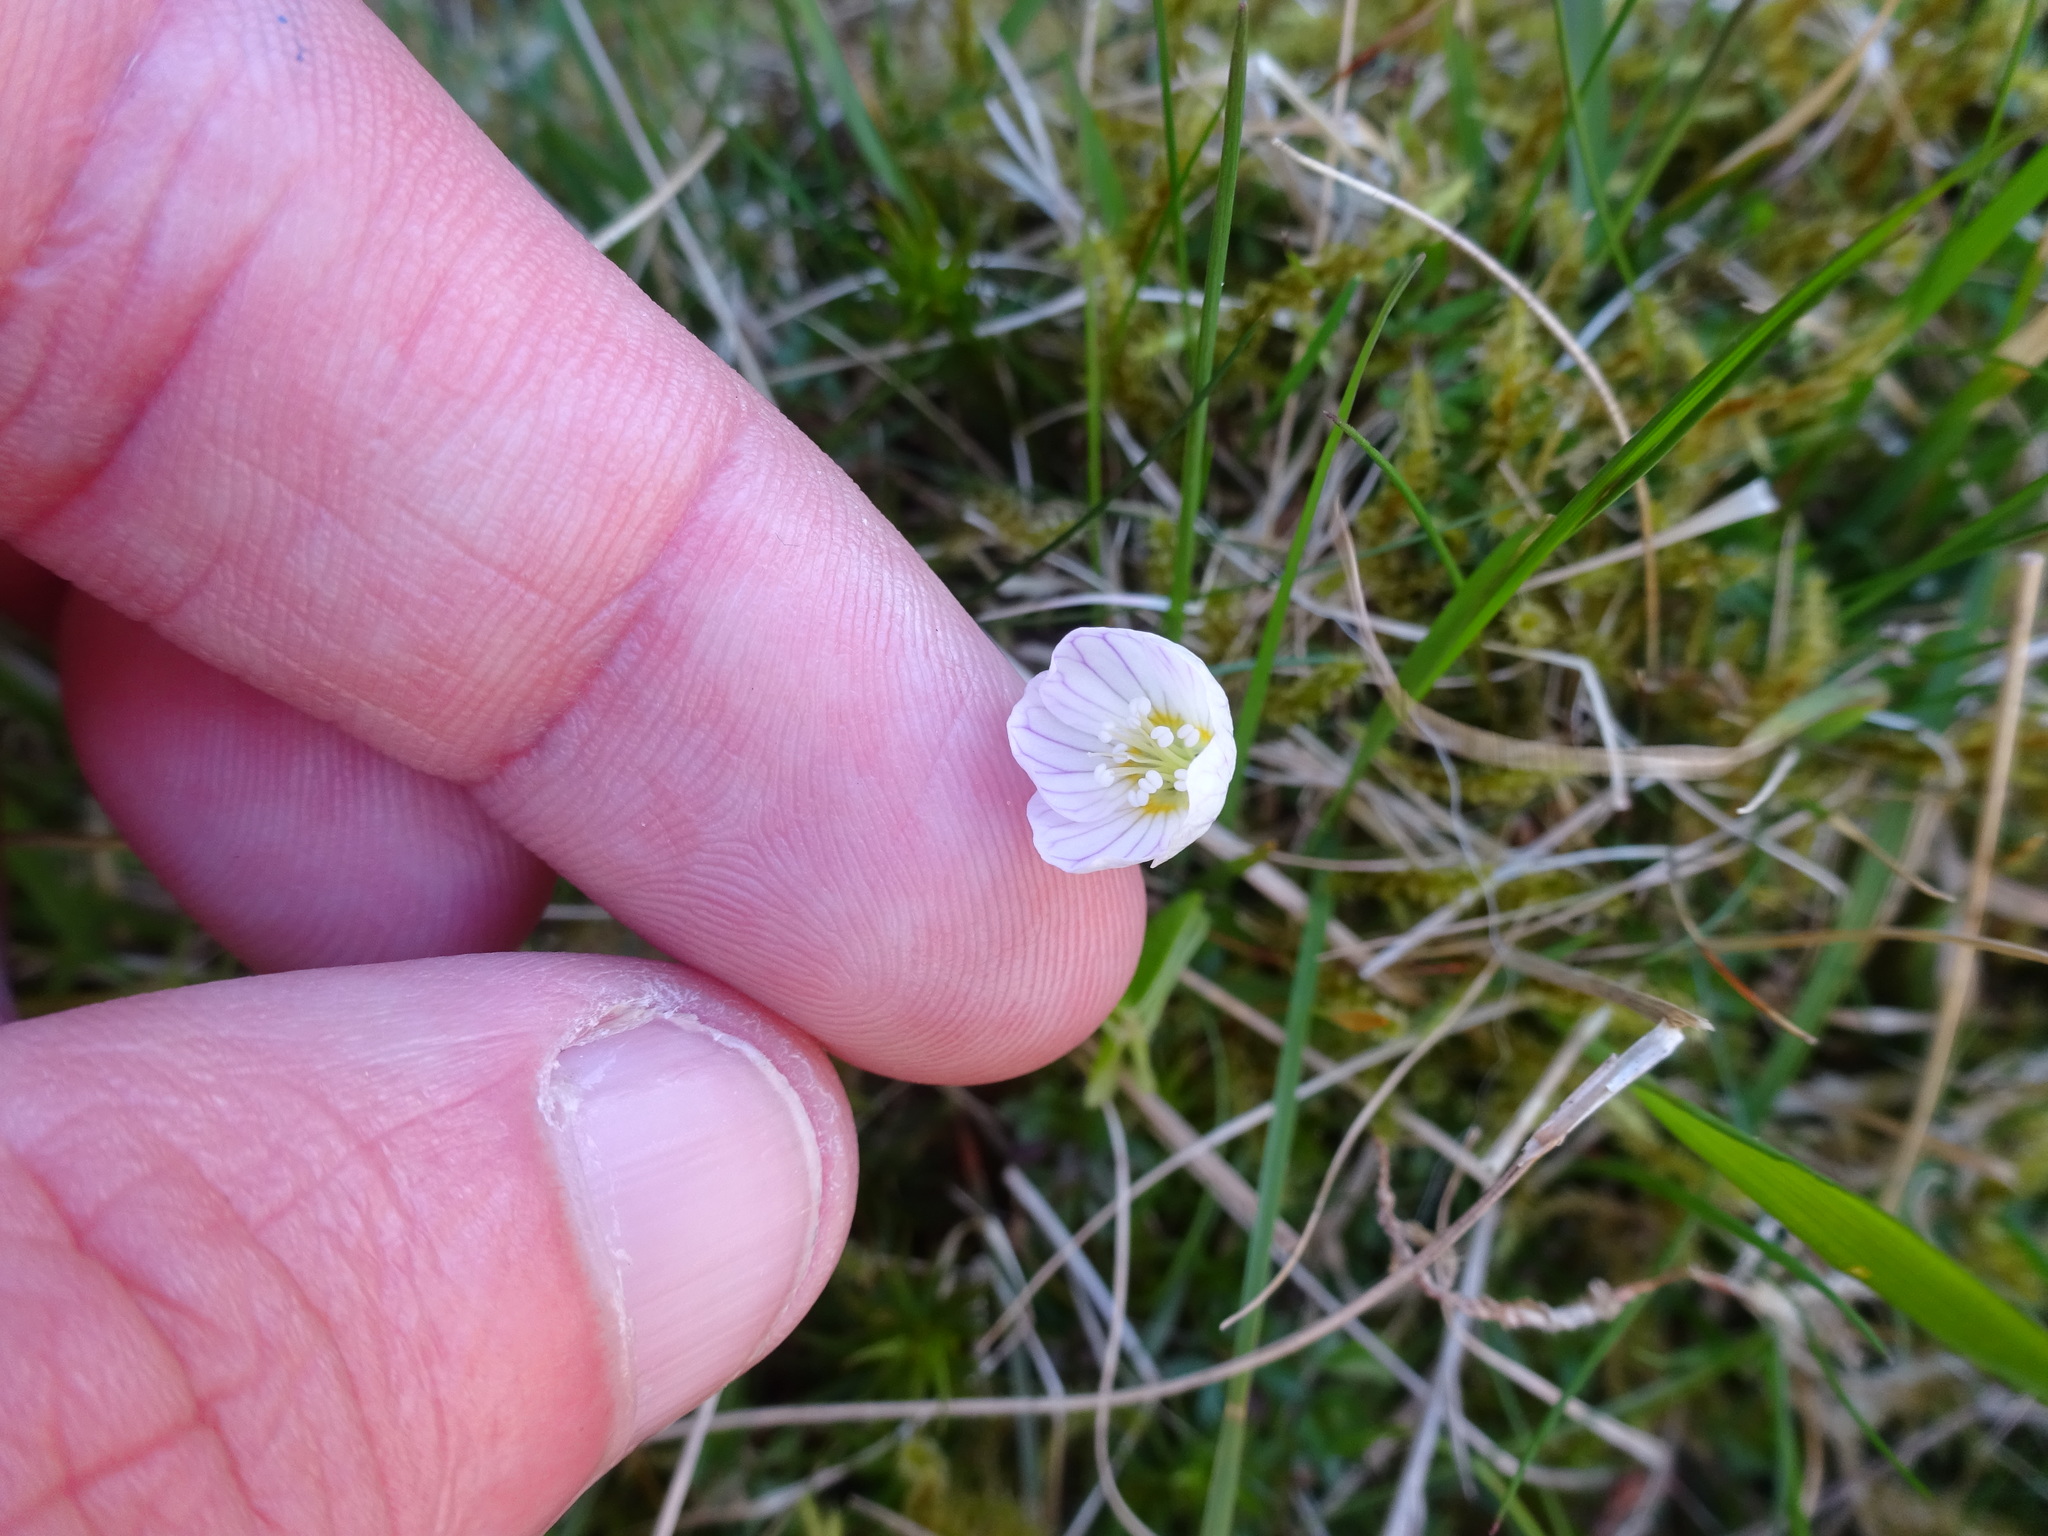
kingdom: Plantae
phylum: Tracheophyta
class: Magnoliopsida
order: Oxalidales
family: Oxalidaceae
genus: Oxalis
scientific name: Oxalis acetosella
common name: Wood-sorrel
